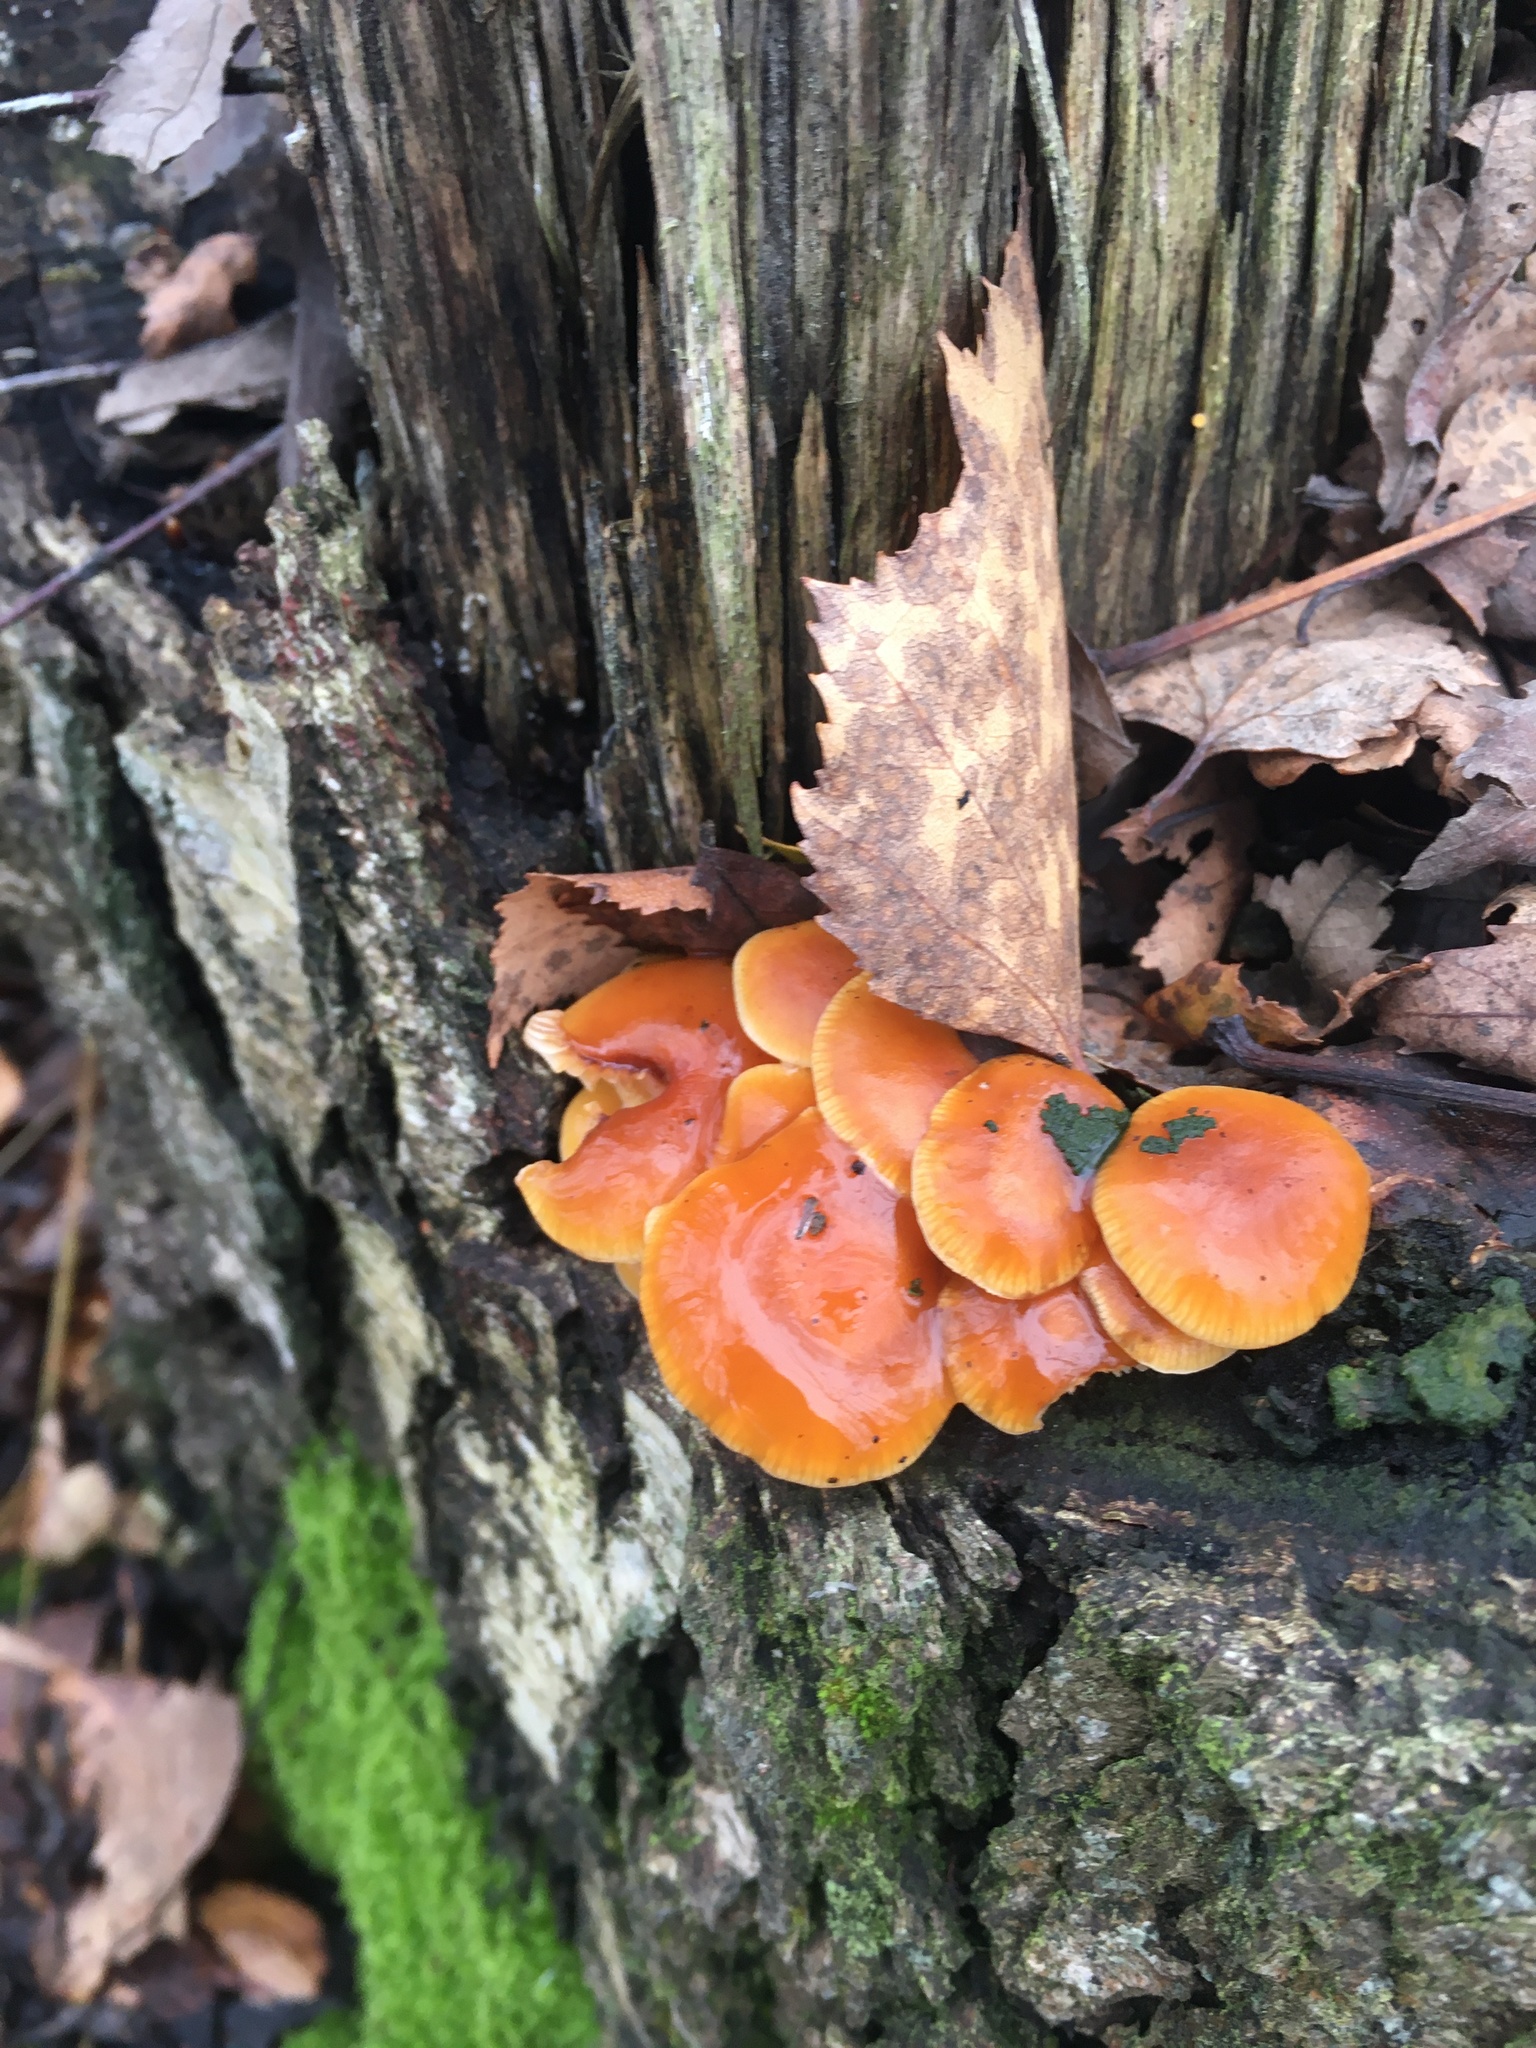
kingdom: Fungi
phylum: Basidiomycota
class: Agaricomycetes
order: Agaricales
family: Physalacriaceae
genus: Flammulina
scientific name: Flammulina
